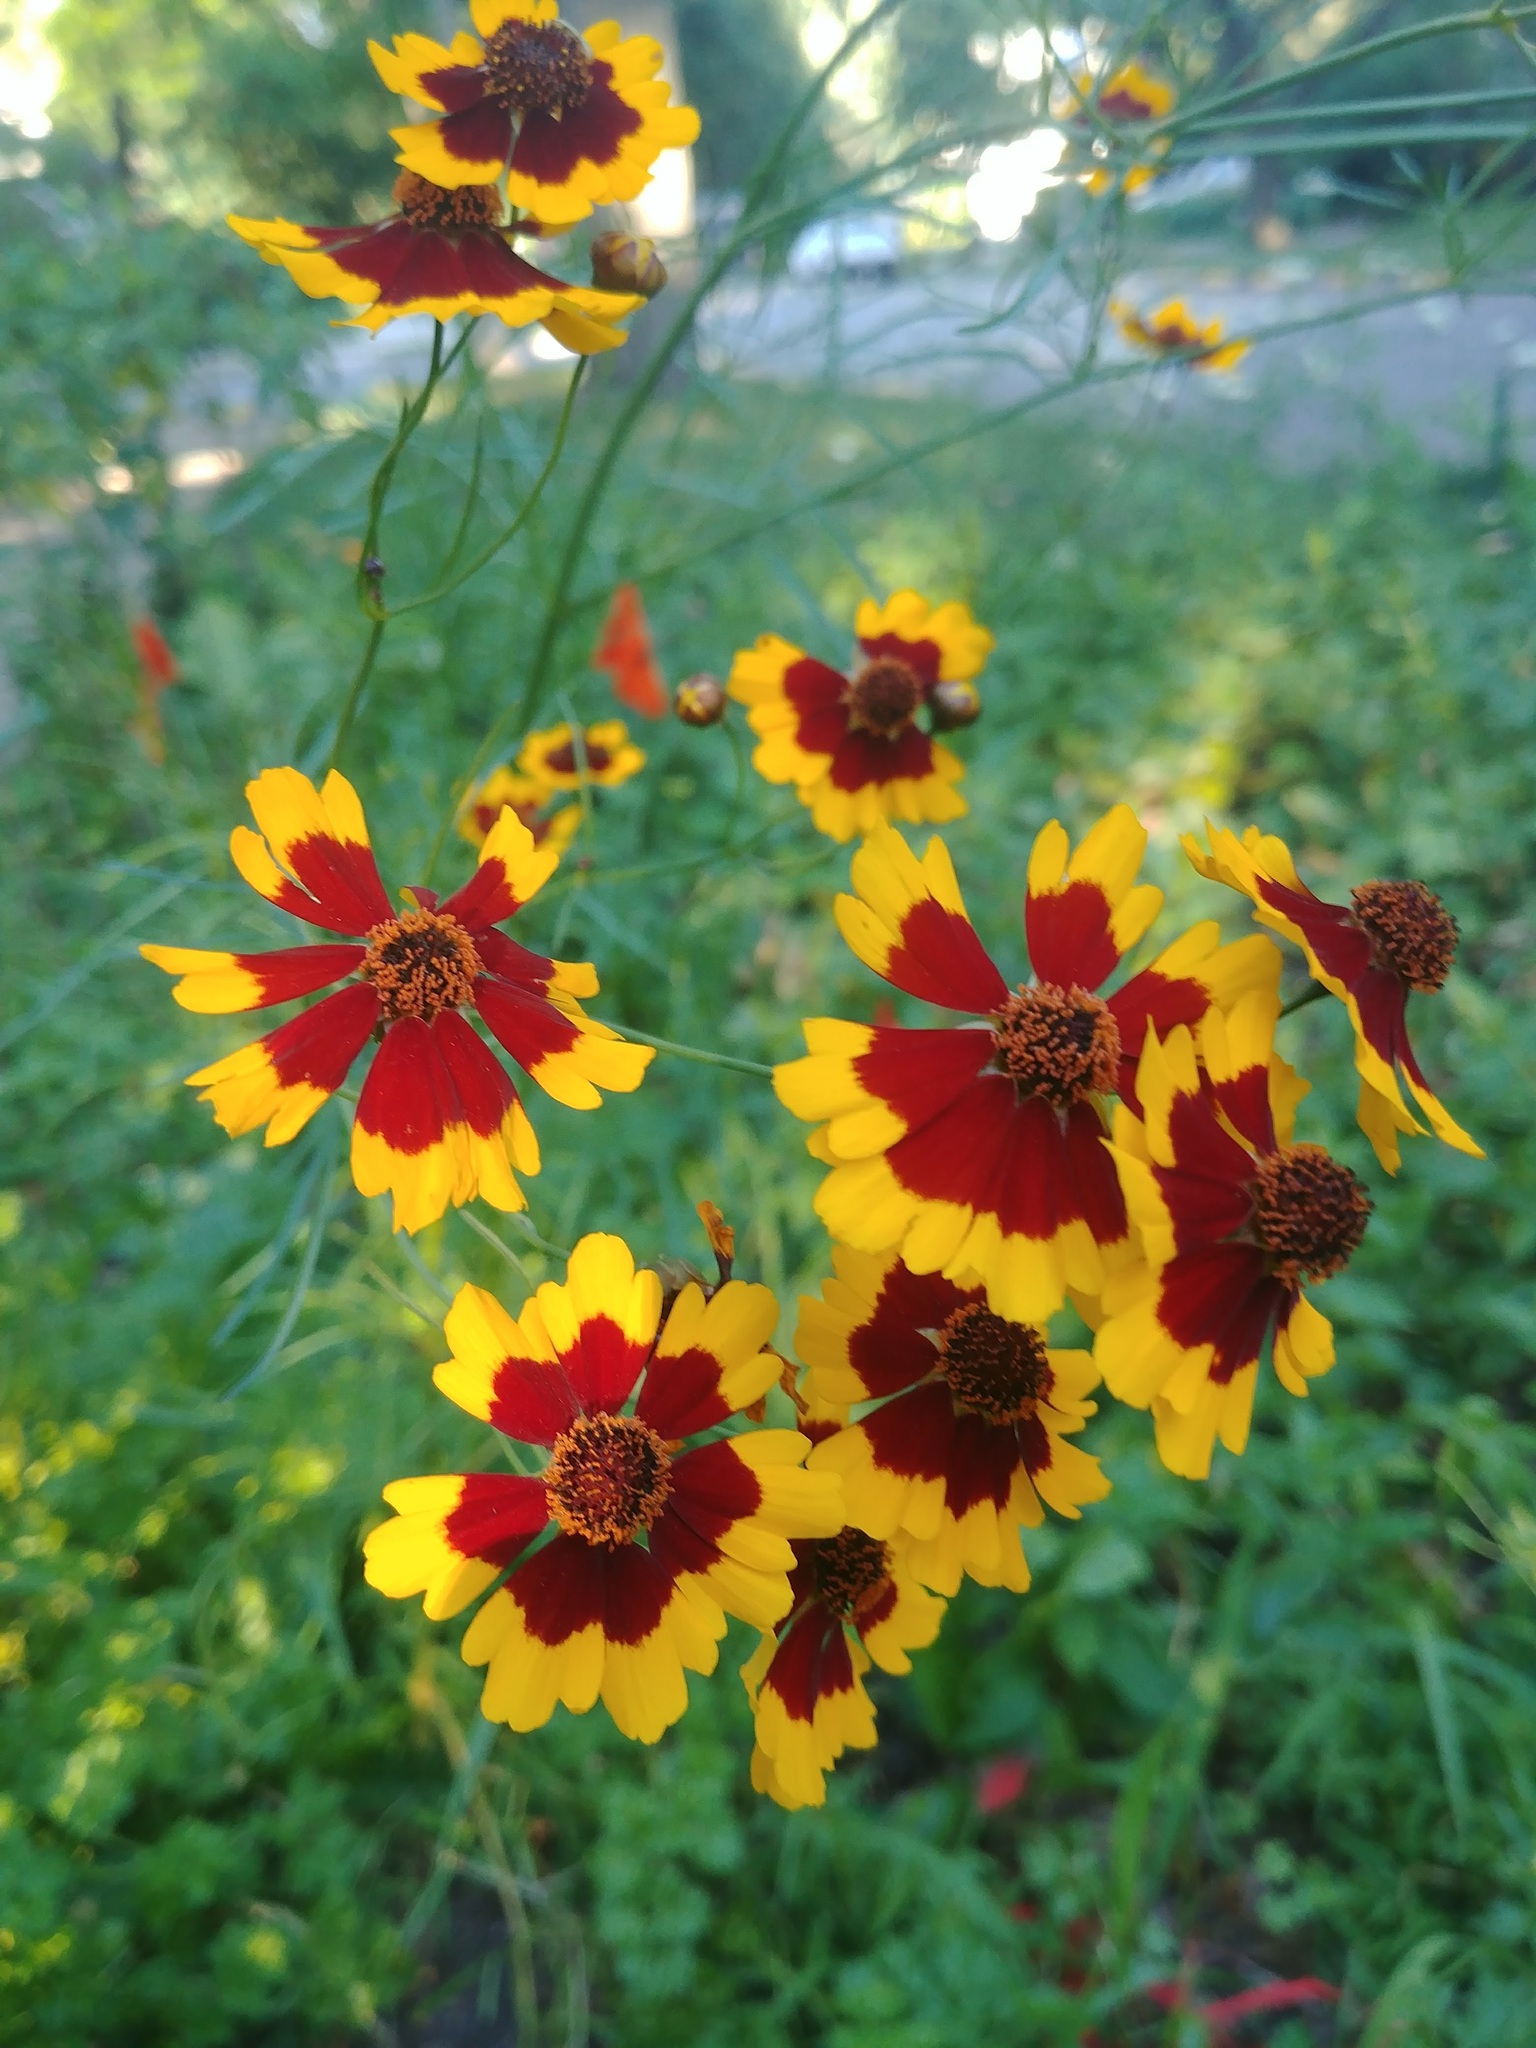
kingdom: Plantae
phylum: Tracheophyta
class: Magnoliopsida
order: Asterales
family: Asteraceae
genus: Coreopsis
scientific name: Coreopsis tinctoria
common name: Garden tickseed
